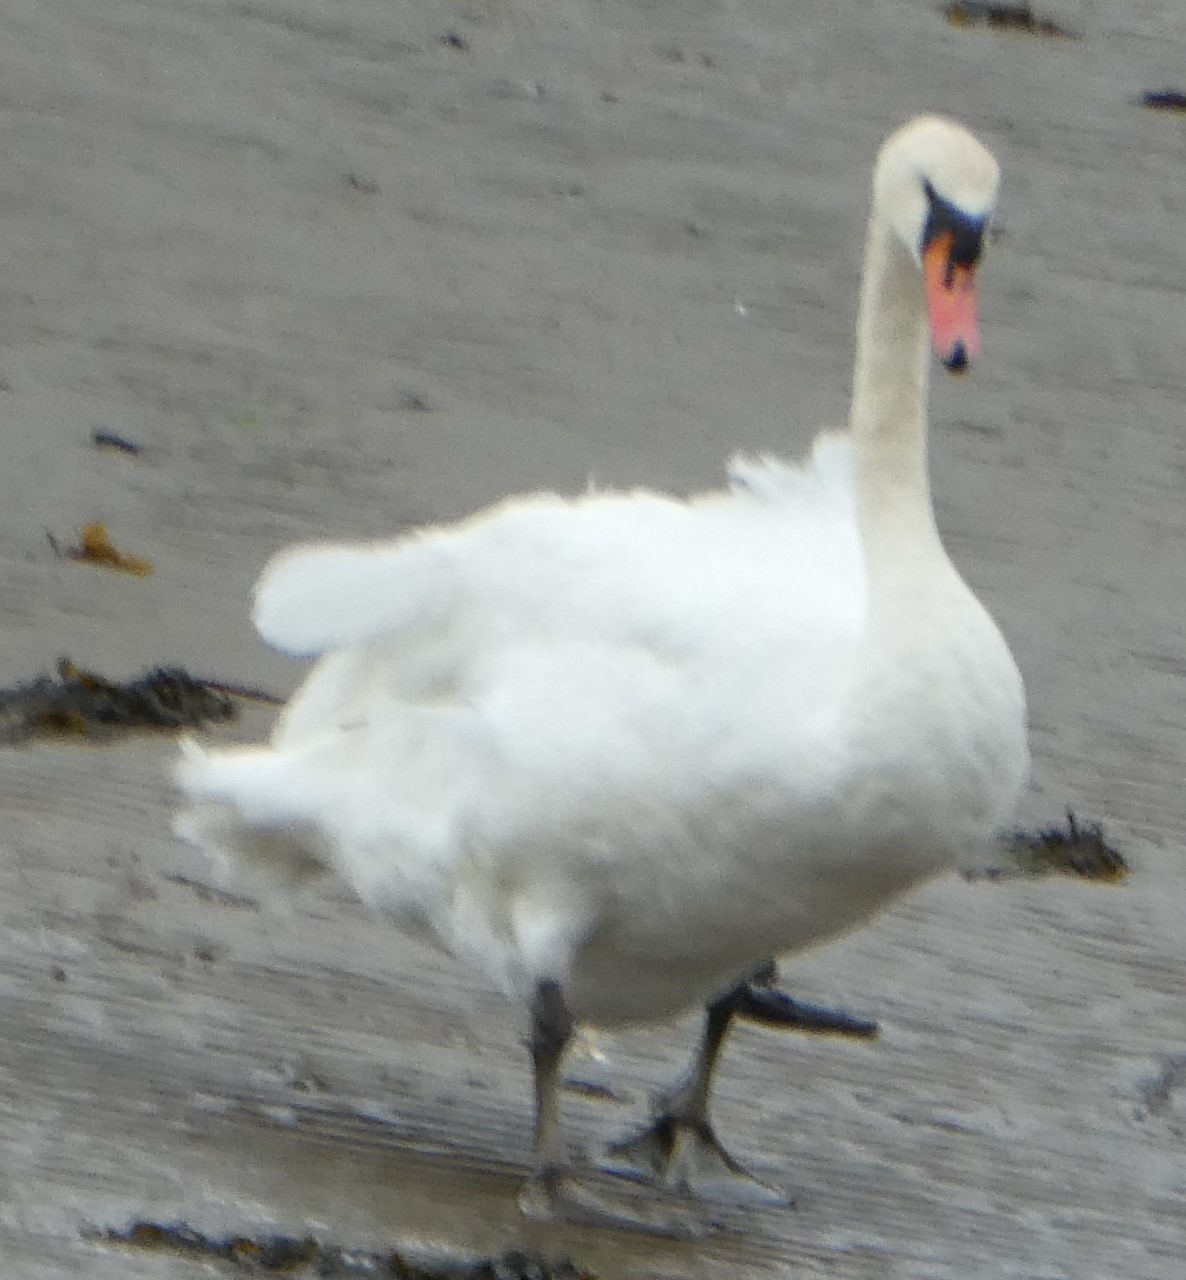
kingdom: Animalia
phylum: Chordata
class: Aves
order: Anseriformes
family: Anatidae
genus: Cygnus
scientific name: Cygnus olor
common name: Mute swan
